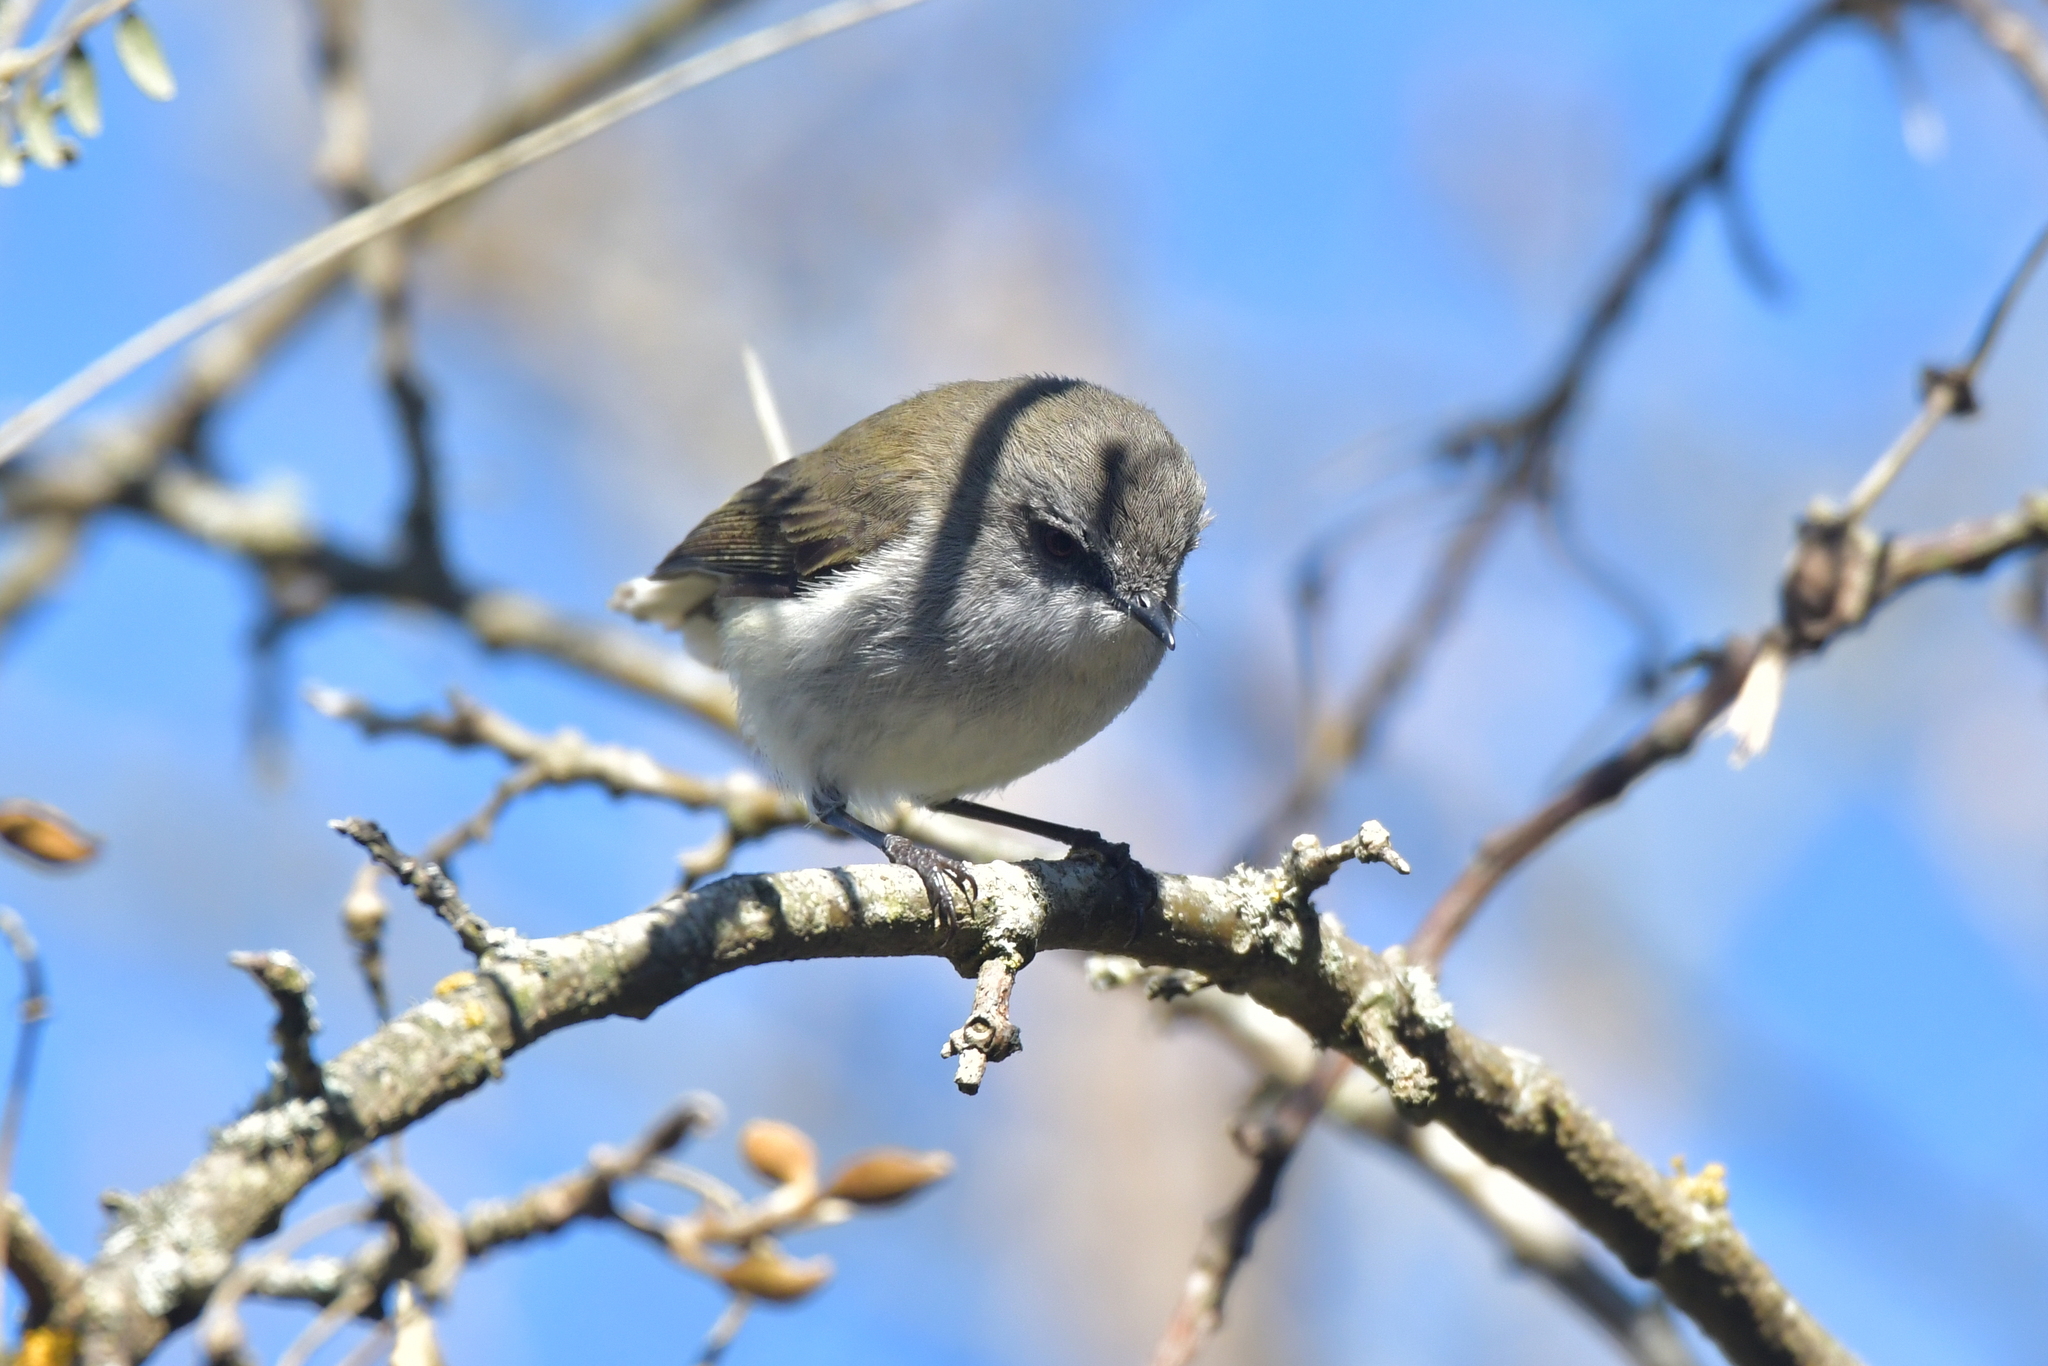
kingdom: Animalia
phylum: Chordata
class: Aves
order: Passeriformes
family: Acanthizidae
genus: Gerygone
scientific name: Gerygone igata
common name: Grey gerygone
